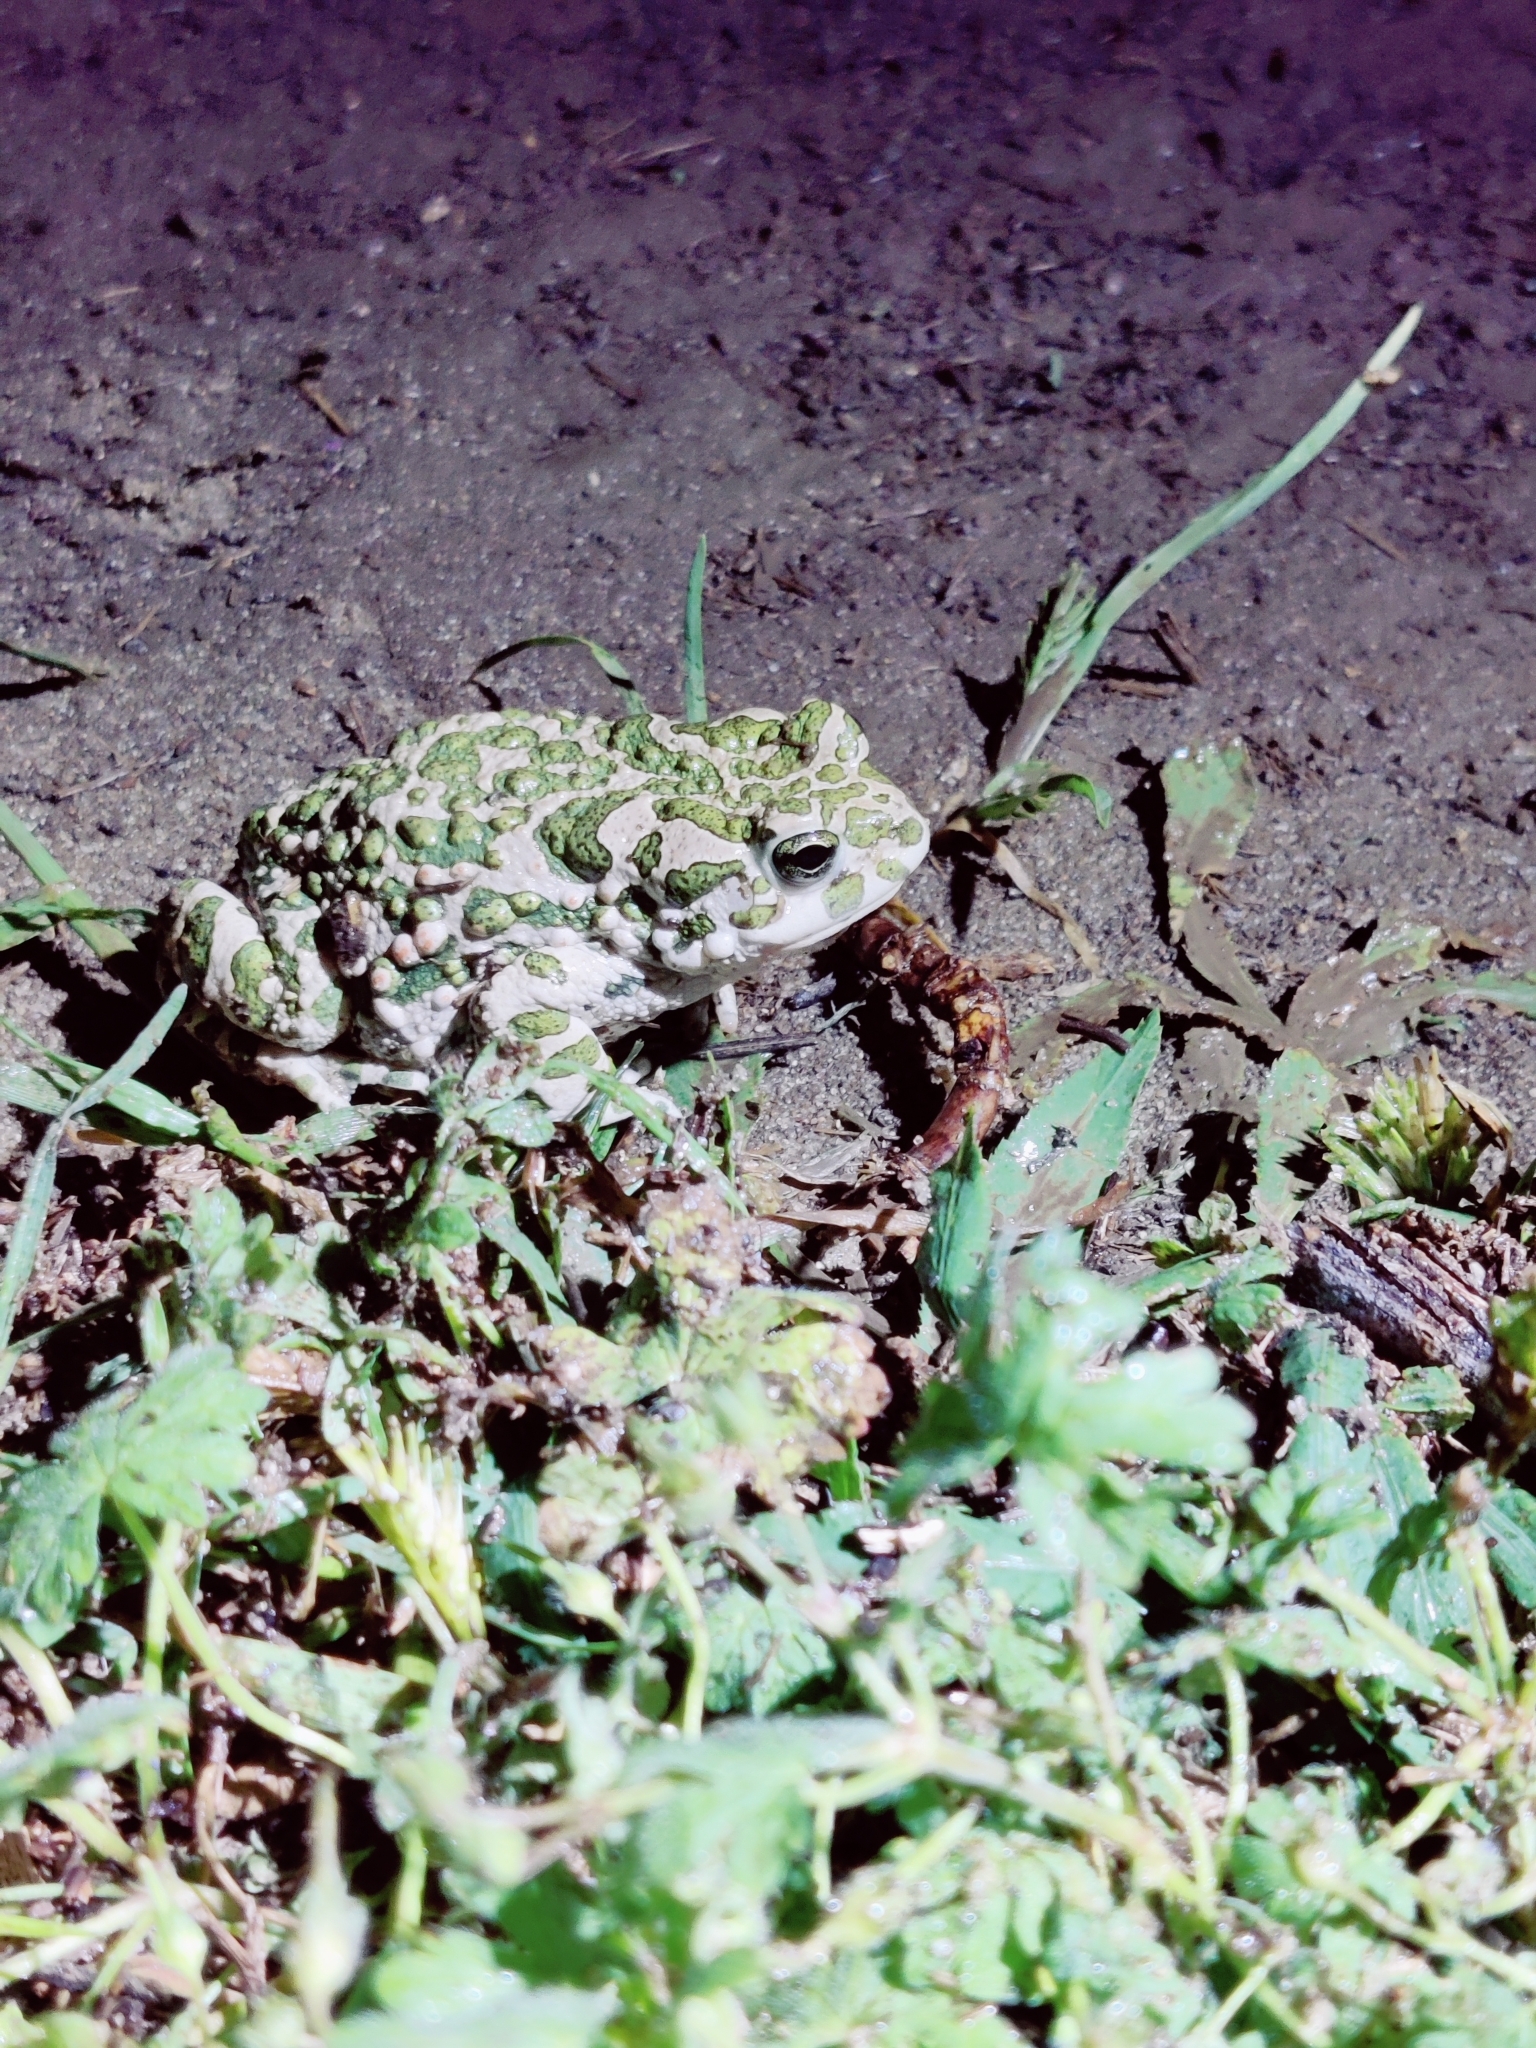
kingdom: Animalia
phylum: Chordata
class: Amphibia
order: Anura
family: Bufonidae
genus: Bufotes
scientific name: Bufotes viridis
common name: European green toad
